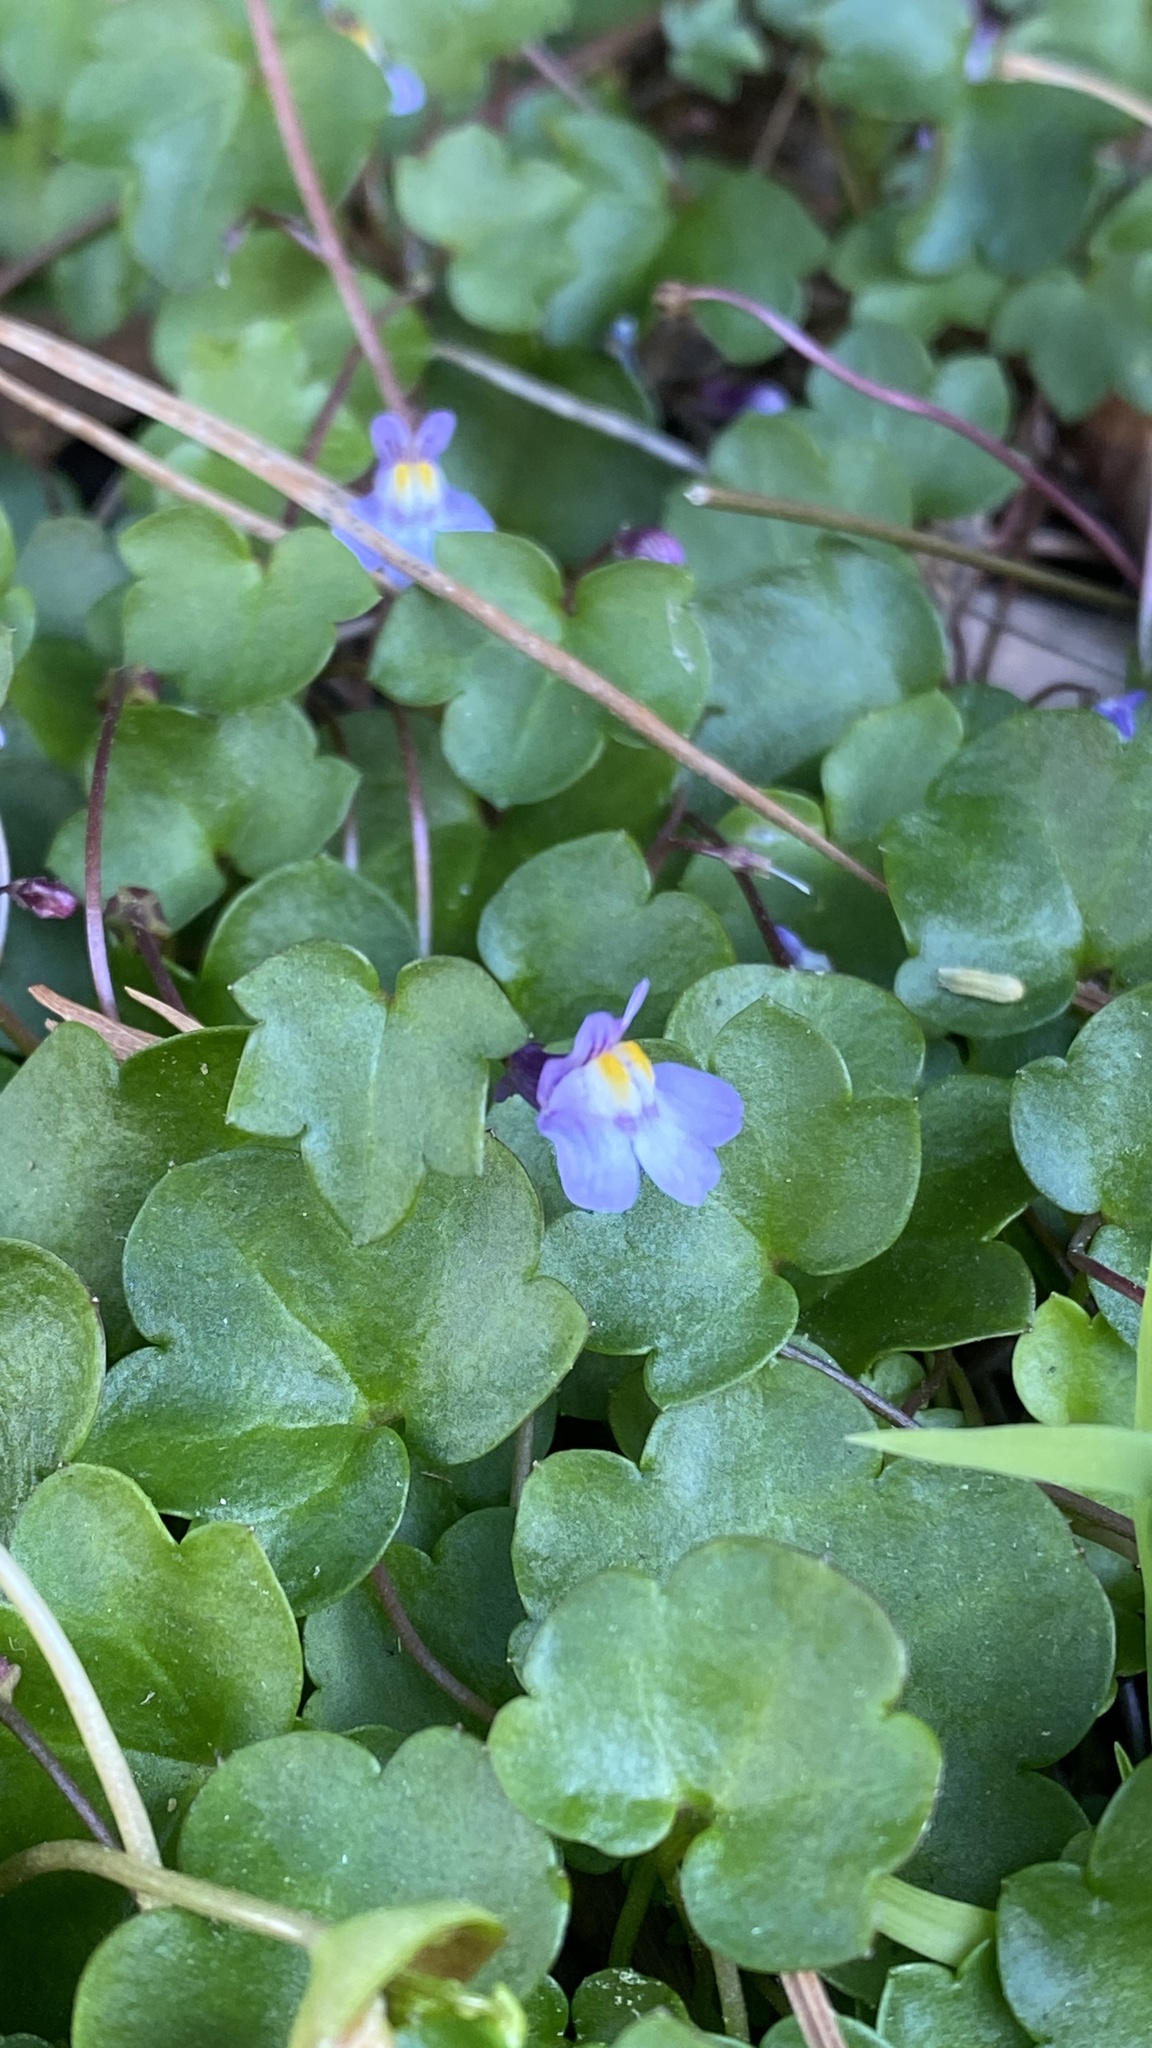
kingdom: Plantae
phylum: Tracheophyta
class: Magnoliopsida
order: Lamiales
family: Plantaginaceae
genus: Cymbalaria
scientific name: Cymbalaria muralis
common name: Ivy-leaved toadflax
